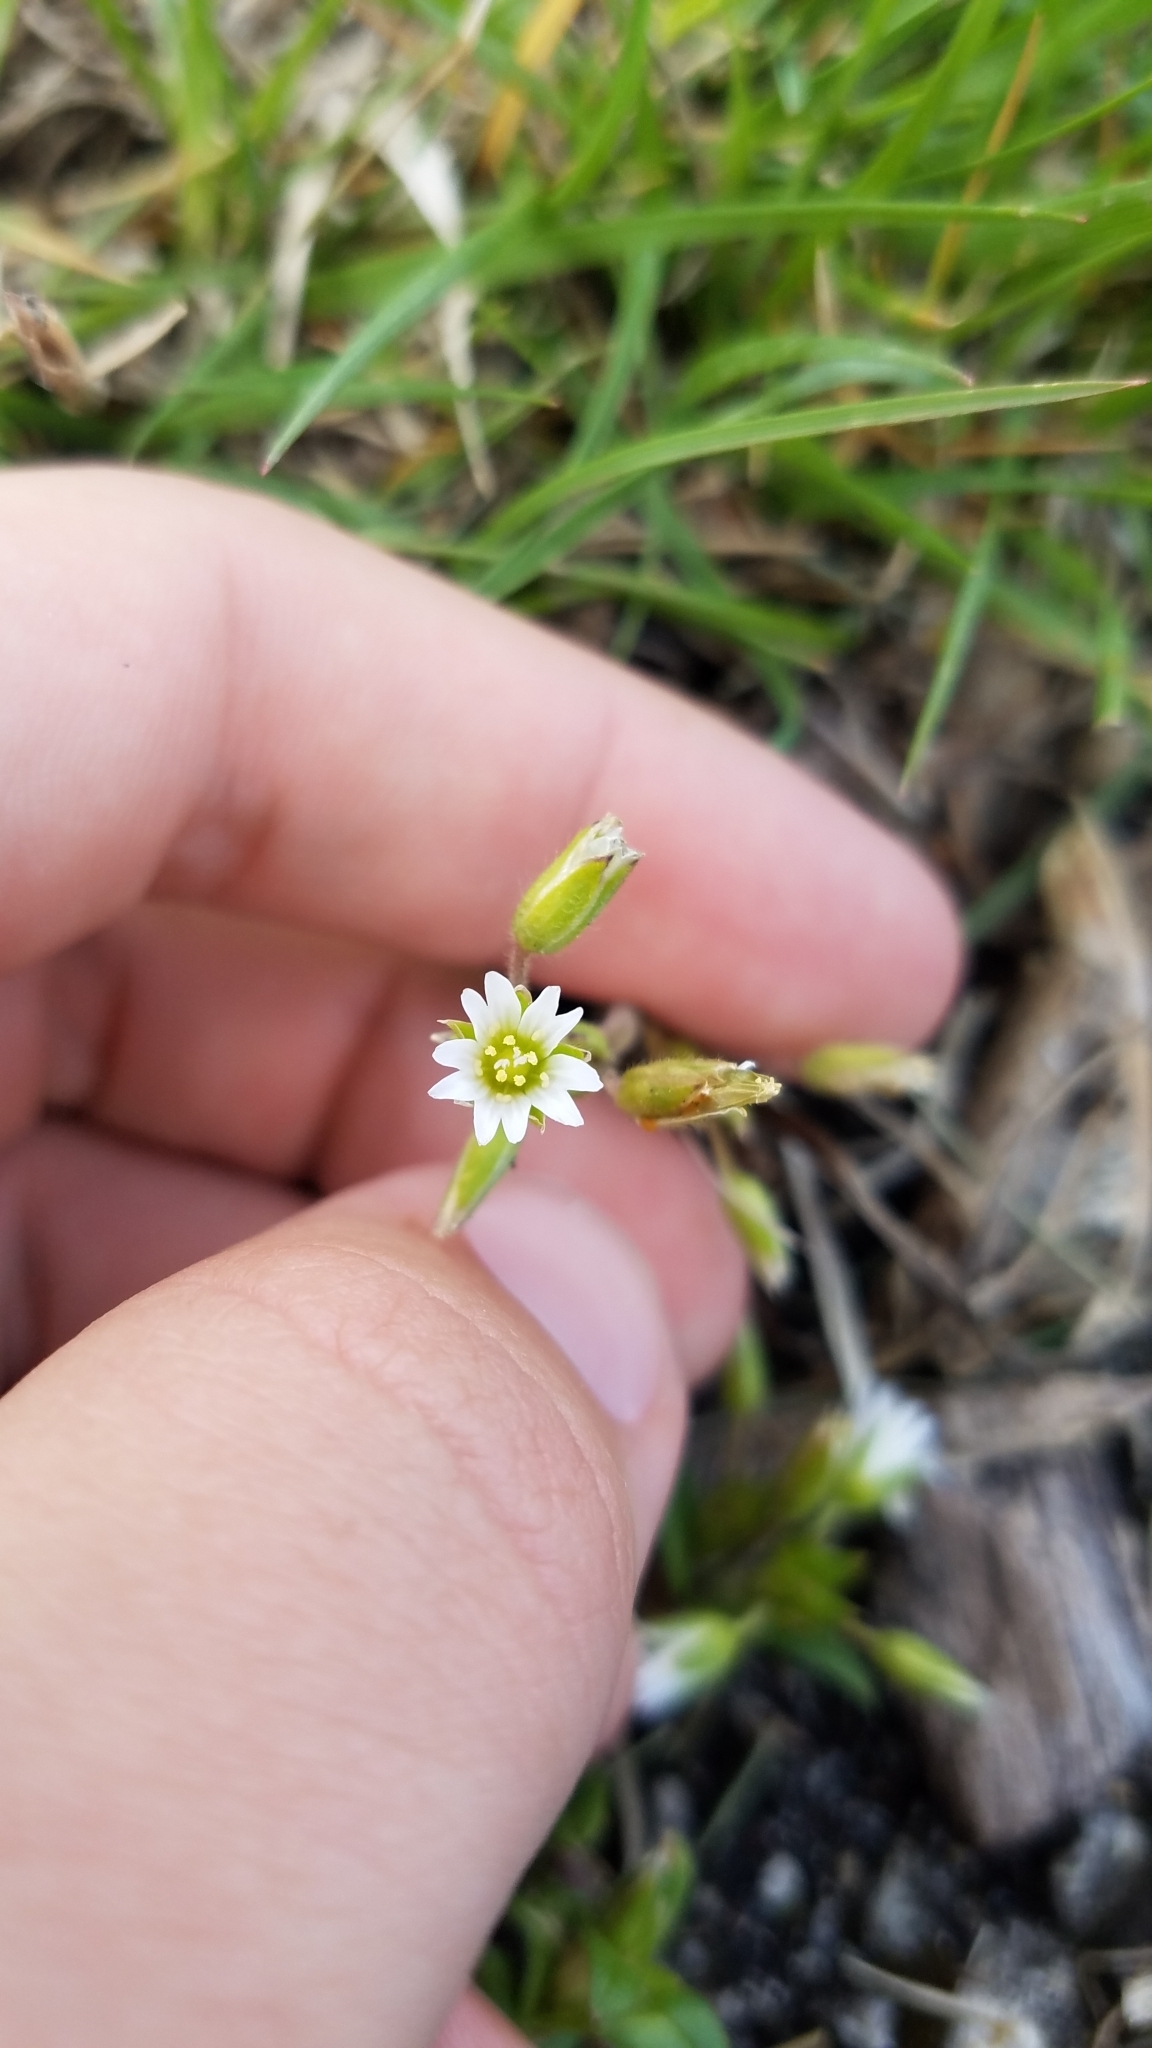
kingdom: Plantae
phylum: Tracheophyta
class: Magnoliopsida
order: Caryophyllales
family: Caryophyllaceae
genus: Cerastium
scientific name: Cerastium fontanum
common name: Common mouse-ear
